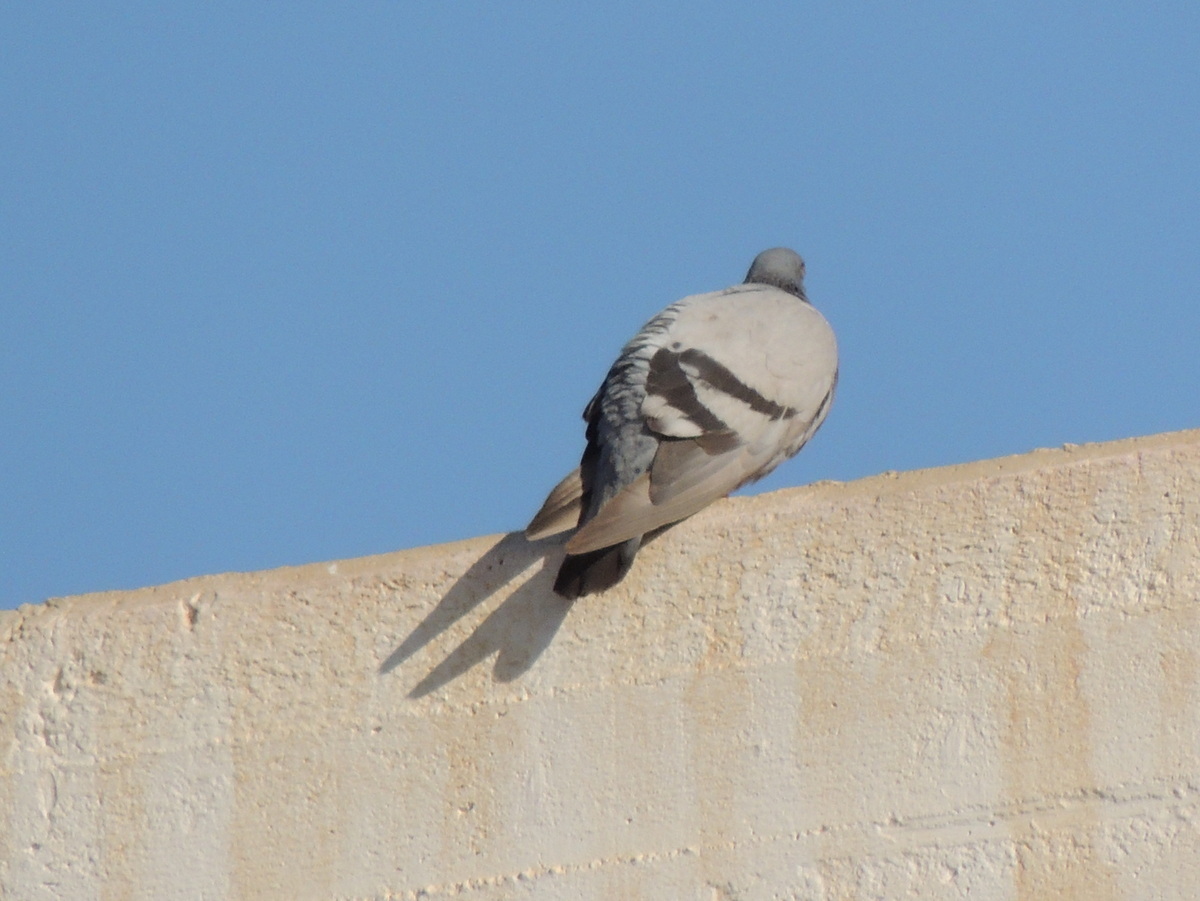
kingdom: Animalia
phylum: Chordata
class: Aves
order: Columbiformes
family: Columbidae
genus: Columba
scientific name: Columba livia
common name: Rock pigeon
